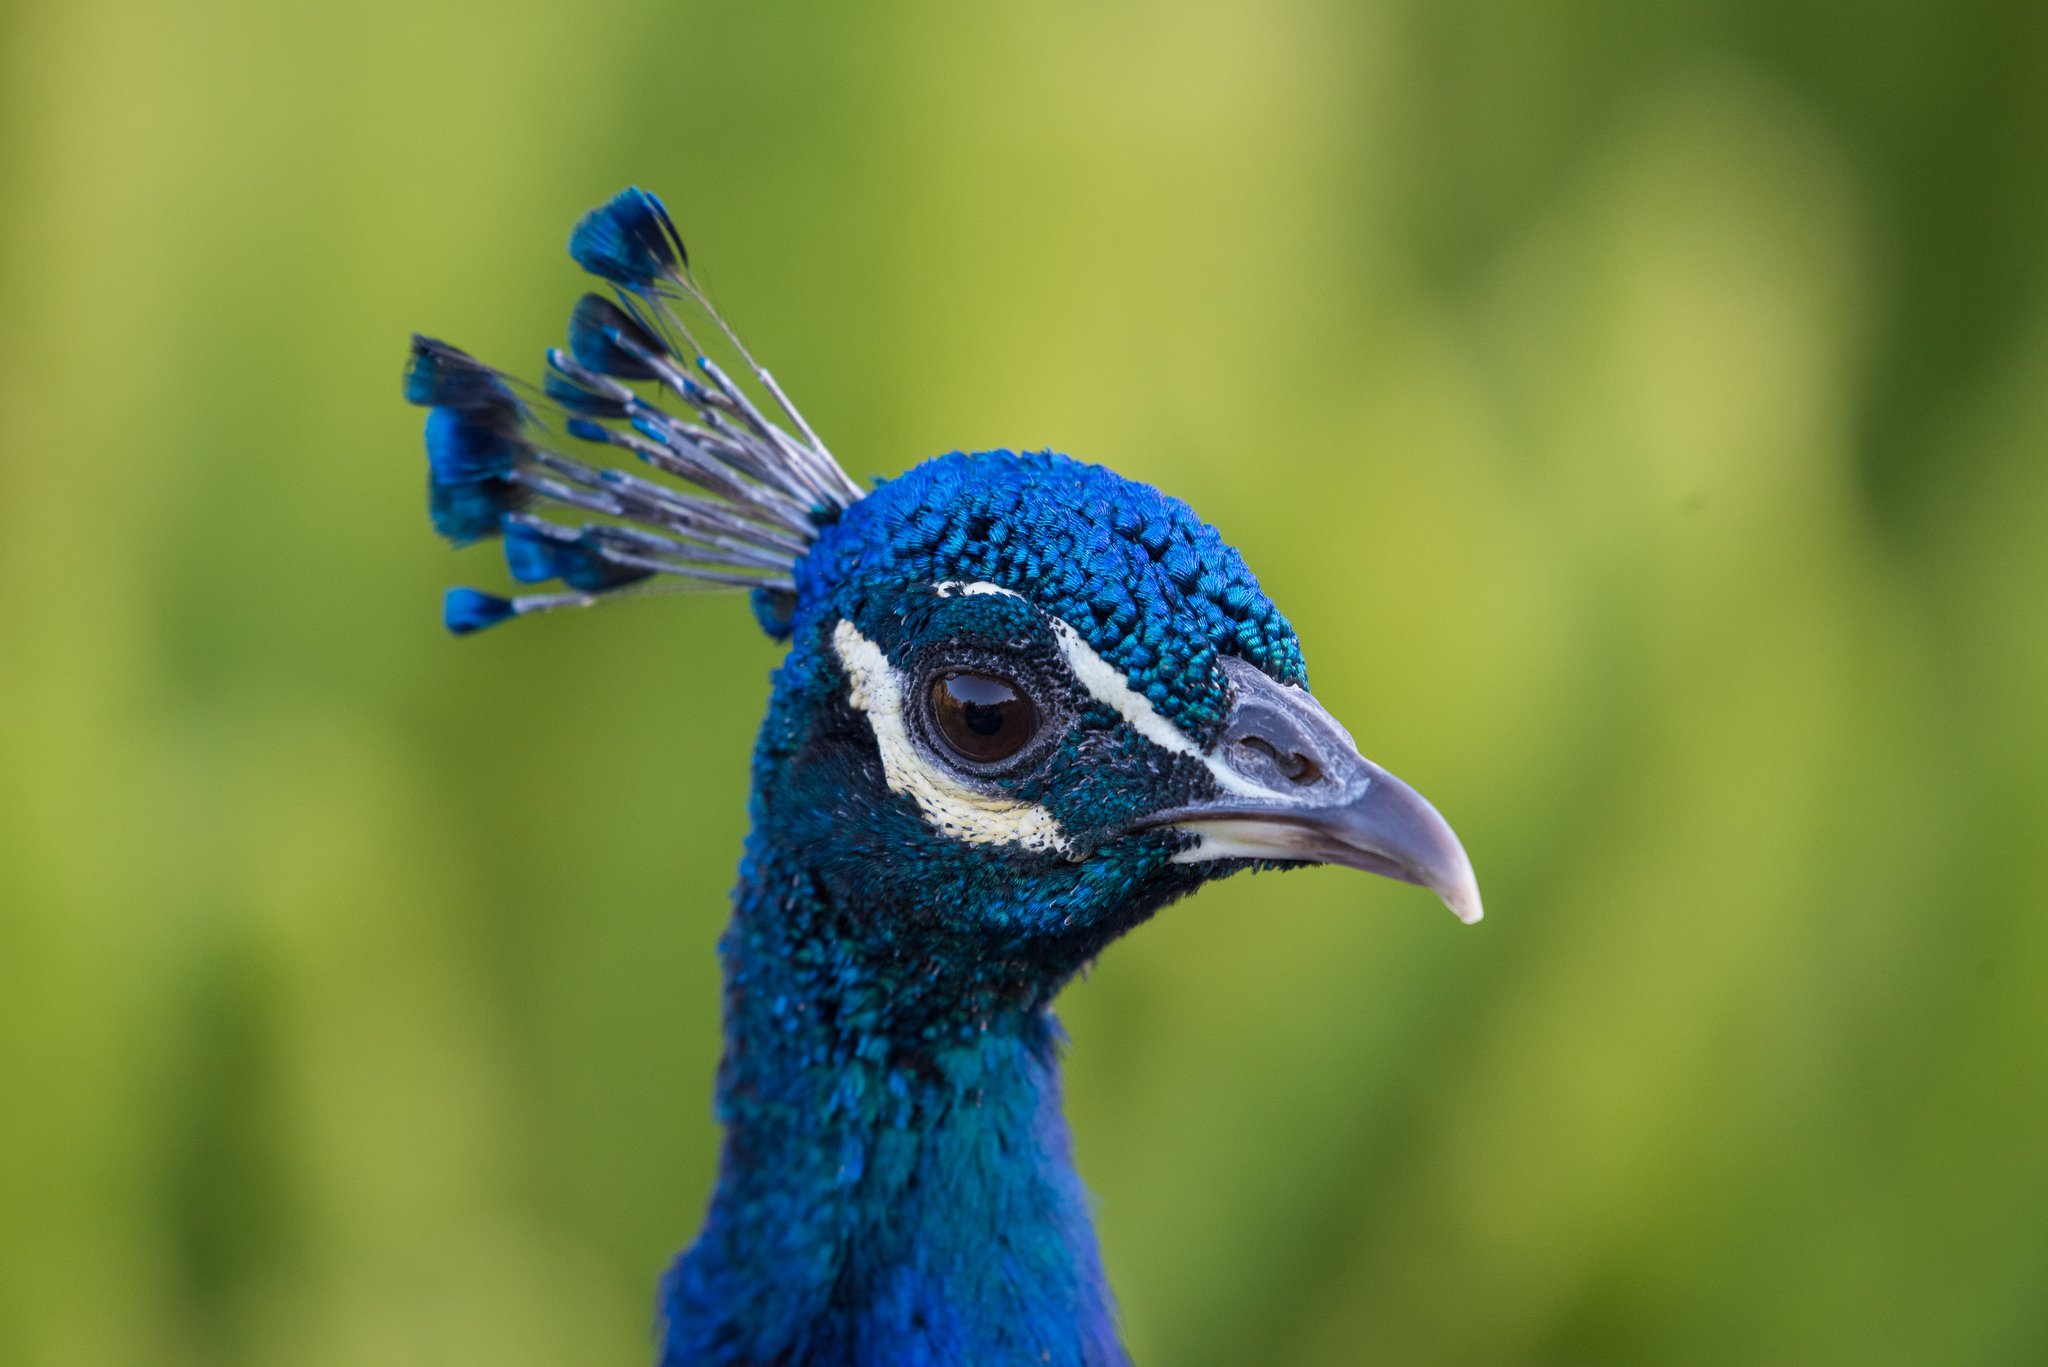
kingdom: Animalia
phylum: Chordata
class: Aves
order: Galliformes
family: Phasianidae
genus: Pavo
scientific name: Pavo cristatus
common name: Indian peafowl
